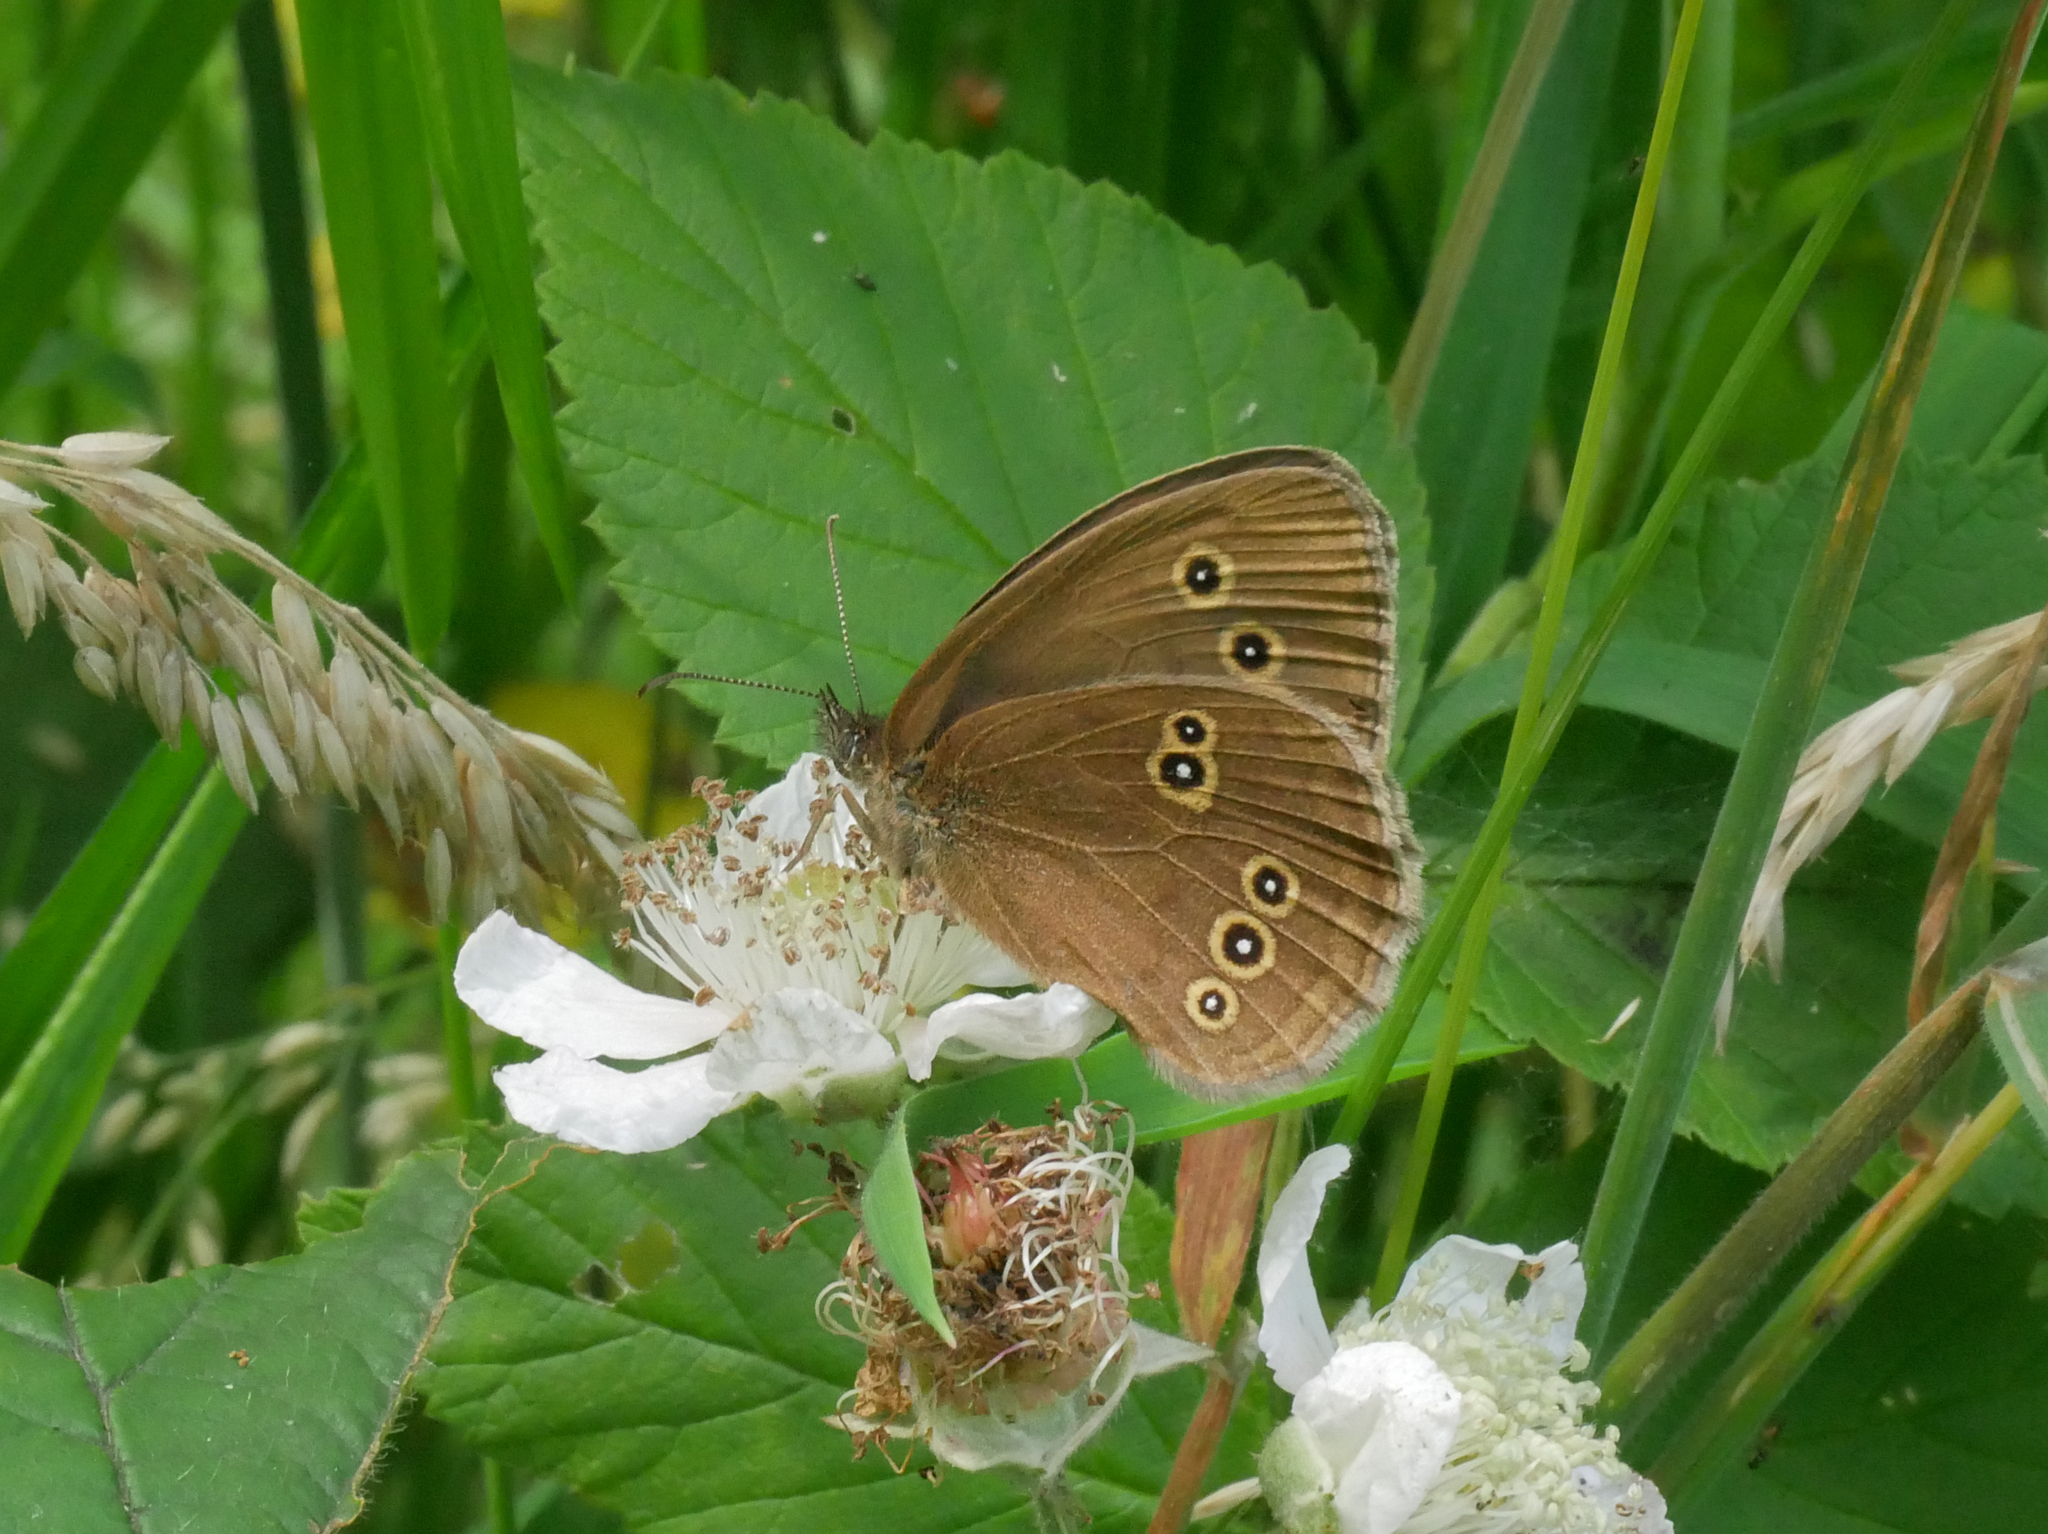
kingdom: Animalia
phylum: Arthropoda
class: Insecta
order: Lepidoptera
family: Nymphalidae
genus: Aphantopus
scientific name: Aphantopus hyperantus
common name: Ringlet
